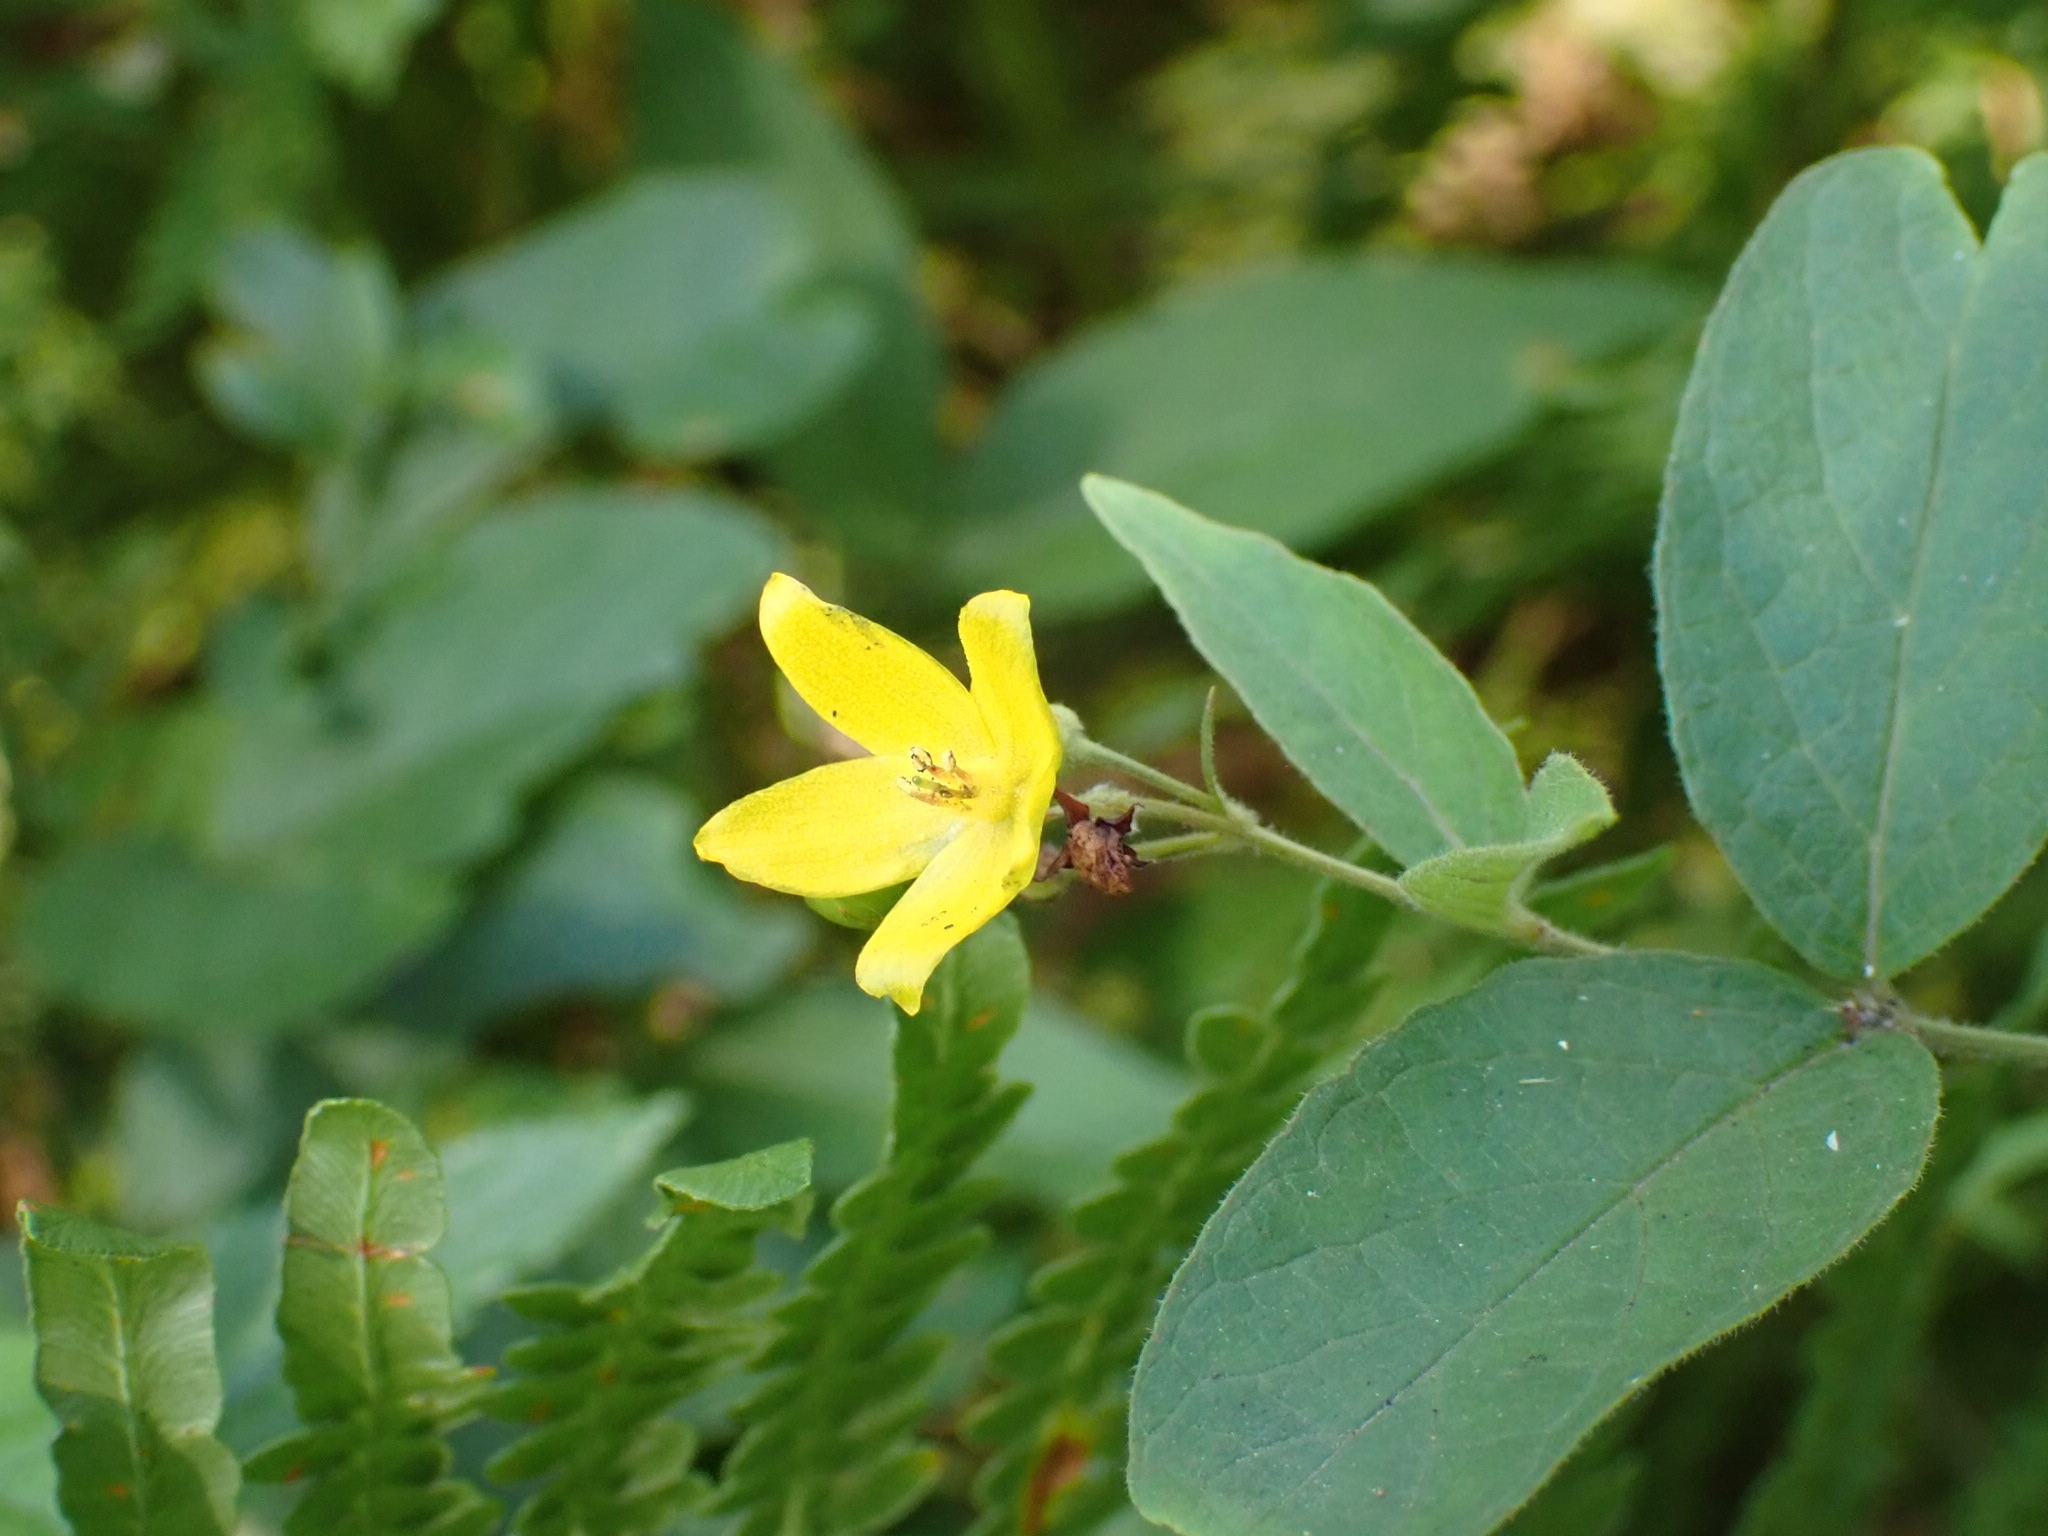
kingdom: Plantae
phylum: Tracheophyta
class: Magnoliopsida
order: Ericales
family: Primulaceae
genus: Lysimachia
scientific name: Lysimachia vulgaris
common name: Yellow loosestrife
